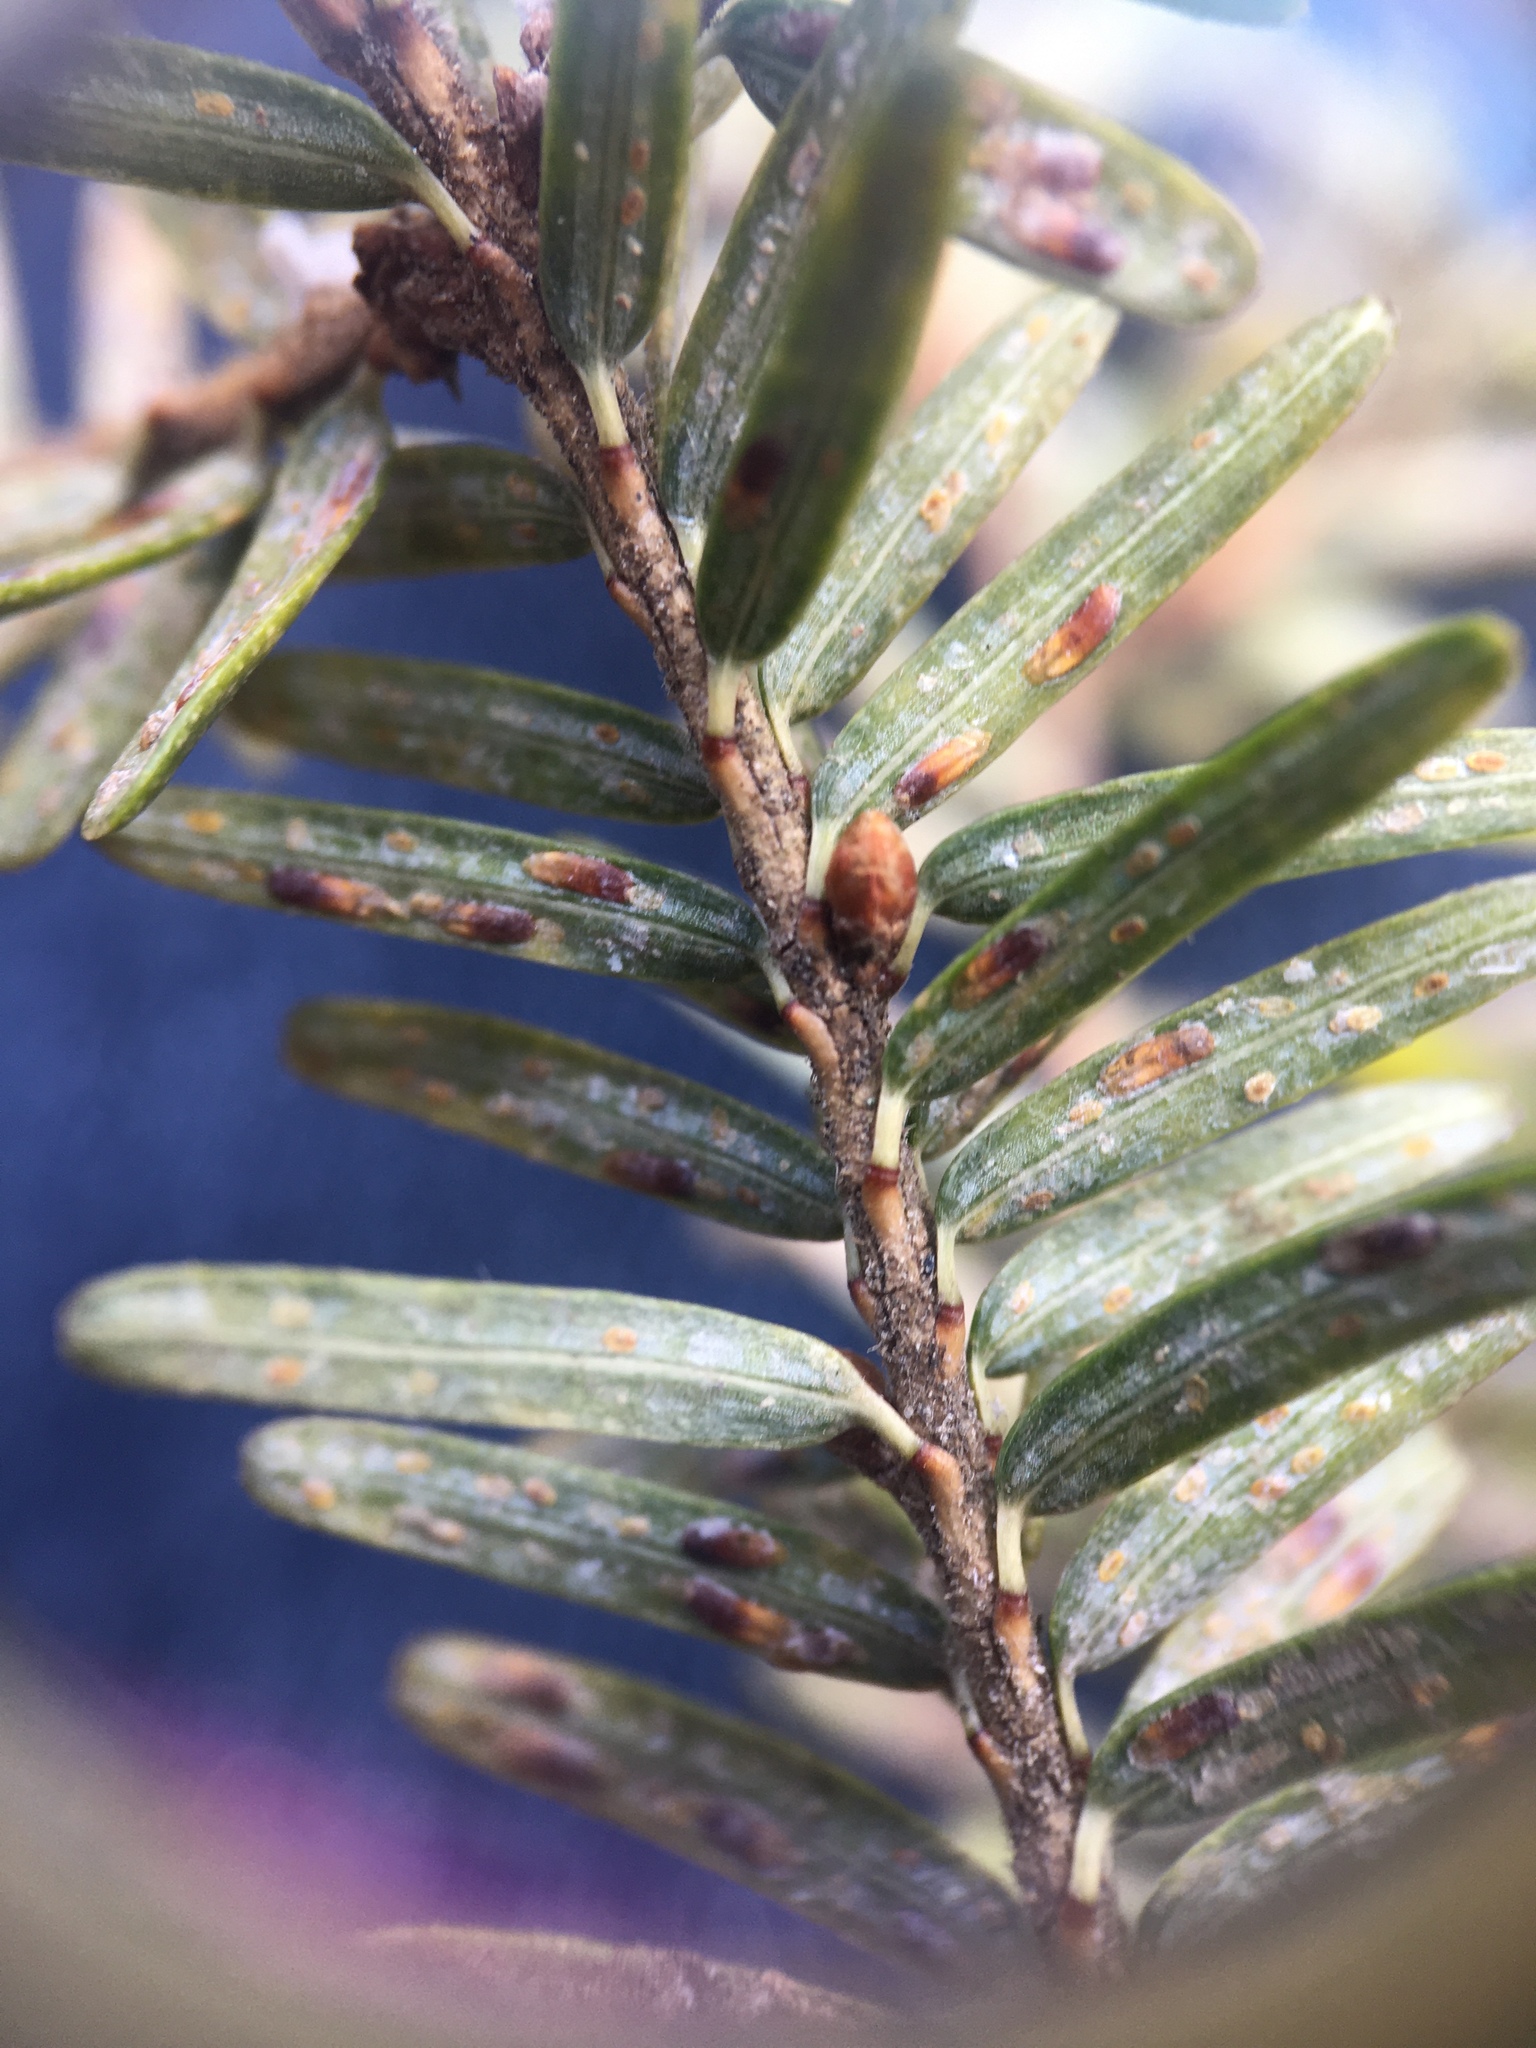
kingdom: Animalia
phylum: Arthropoda
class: Insecta
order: Hemiptera
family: Diaspididae
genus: Fiorinia
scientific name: Fiorinia externa
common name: Elongate hemlock scale
